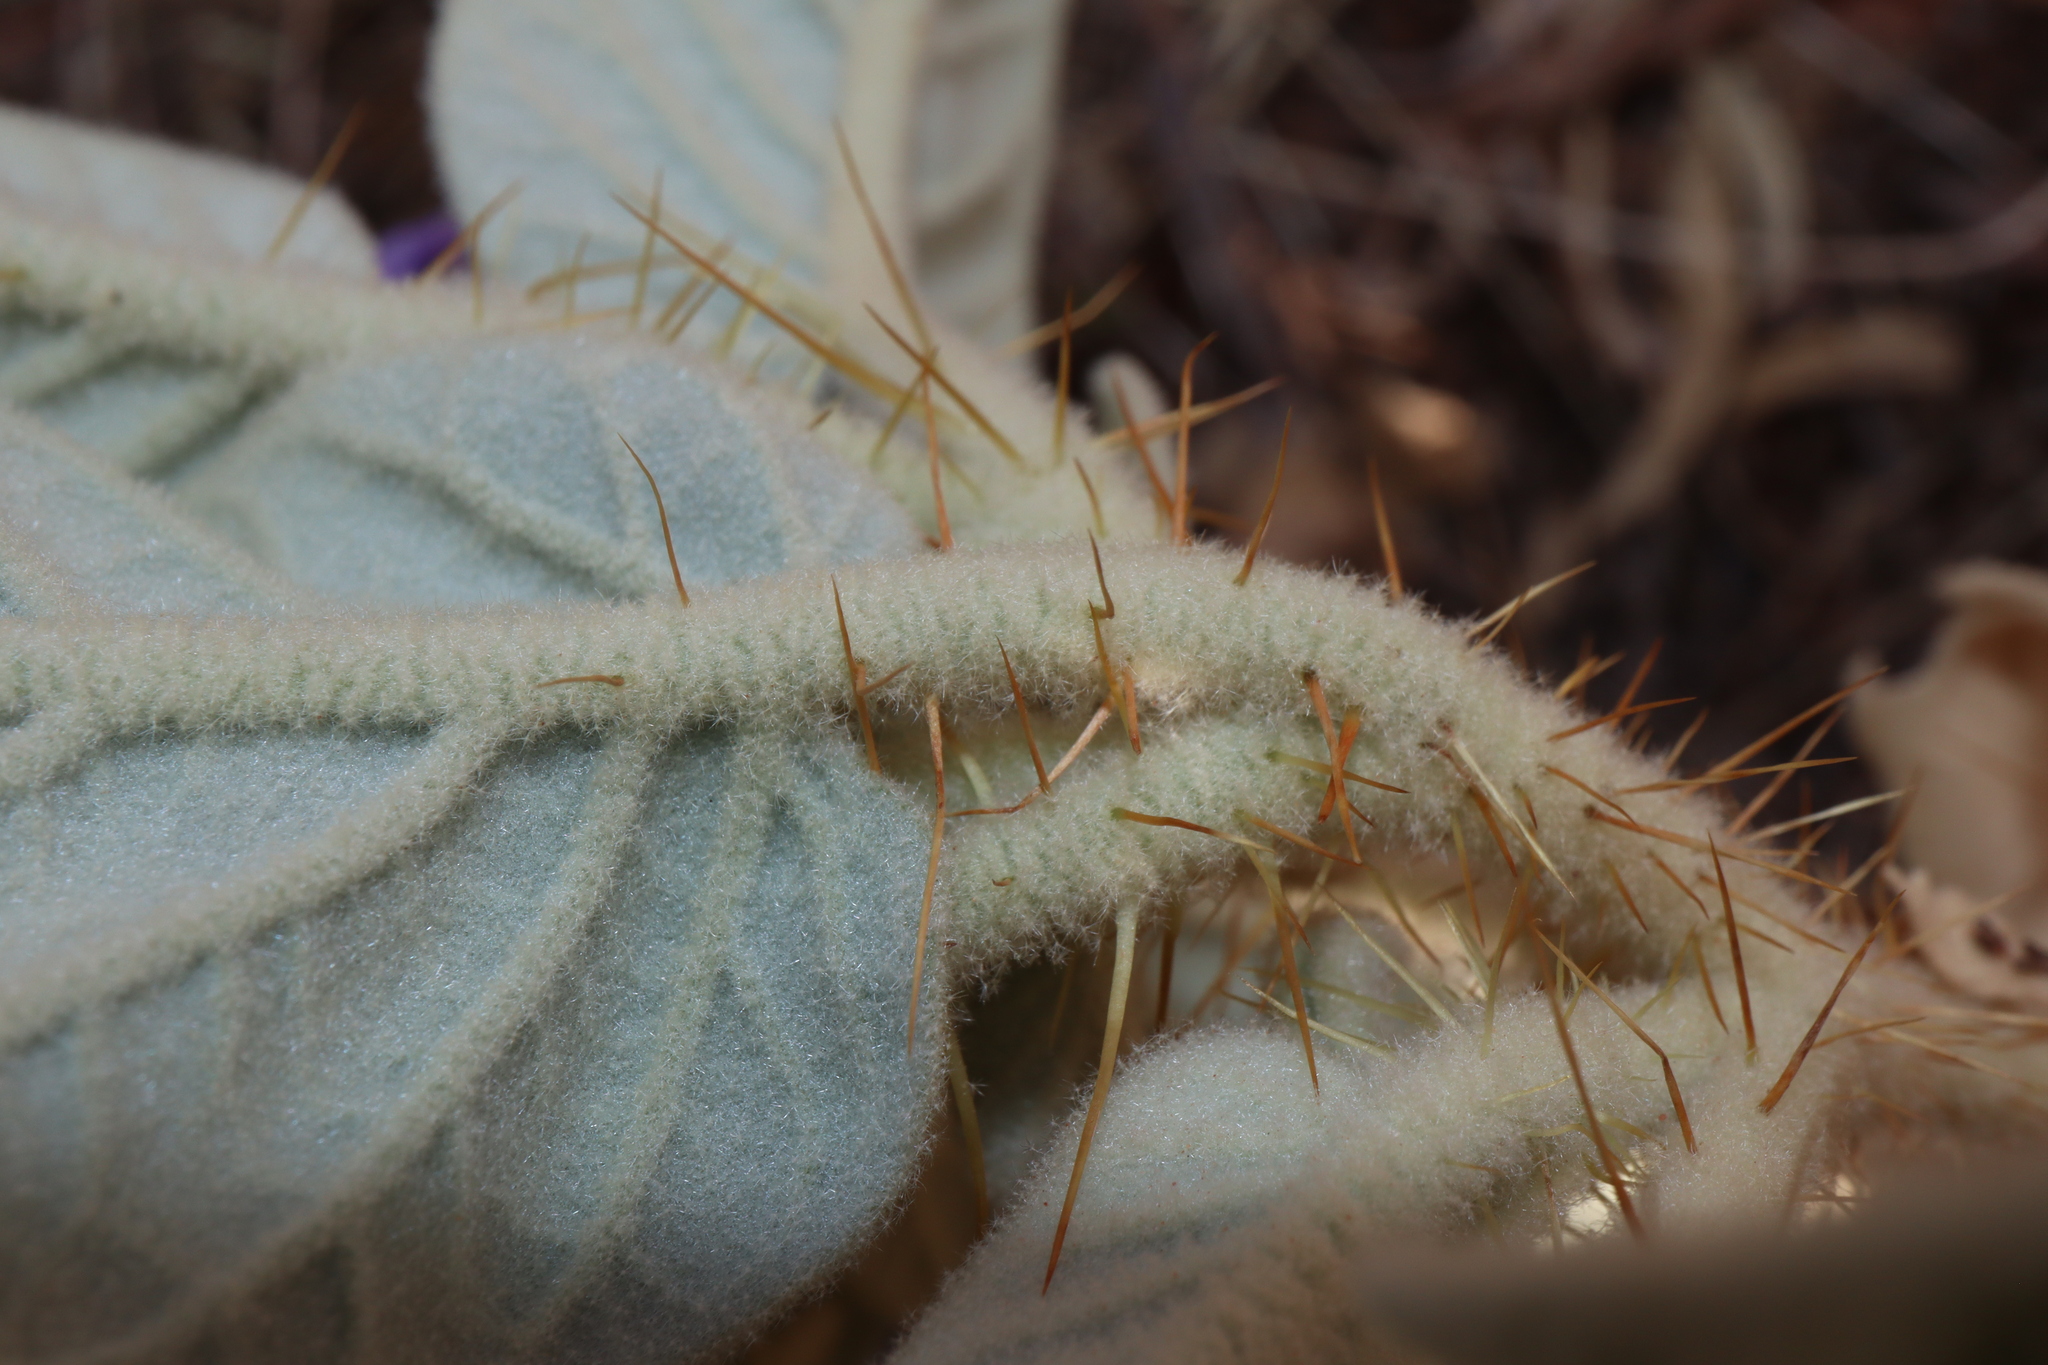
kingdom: Plantae
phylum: Tracheophyta
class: Magnoliopsida
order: Solanales
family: Solanaceae
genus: Solanum
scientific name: Solanum ellipticum
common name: Potato-bush
